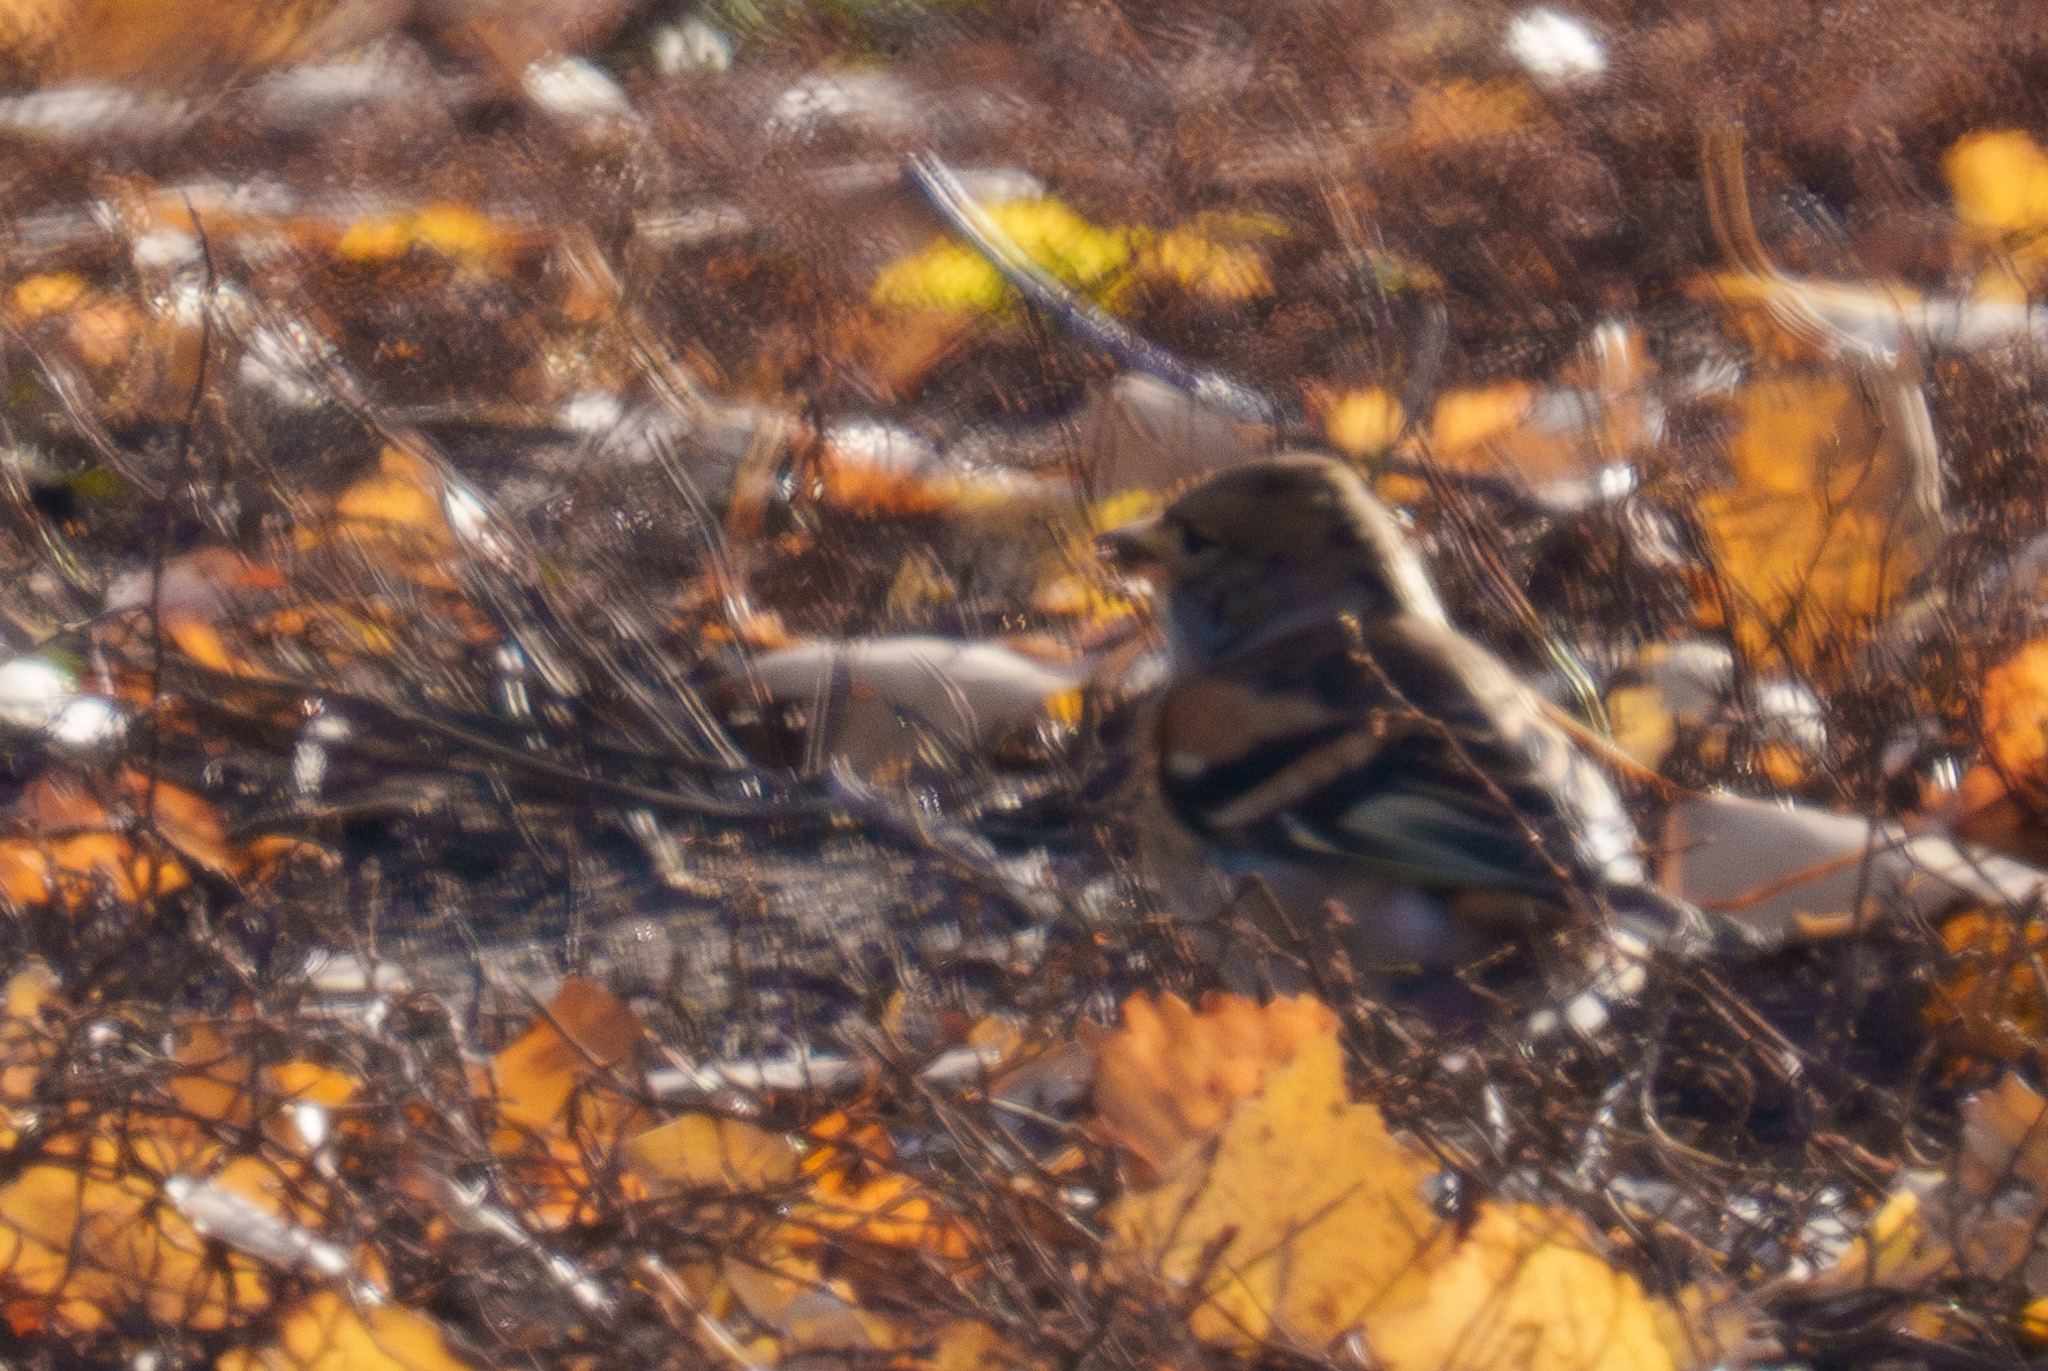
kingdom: Animalia
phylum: Chordata
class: Aves
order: Passeriformes
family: Fringillidae
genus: Fringilla
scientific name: Fringilla montifringilla
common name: Brambling
